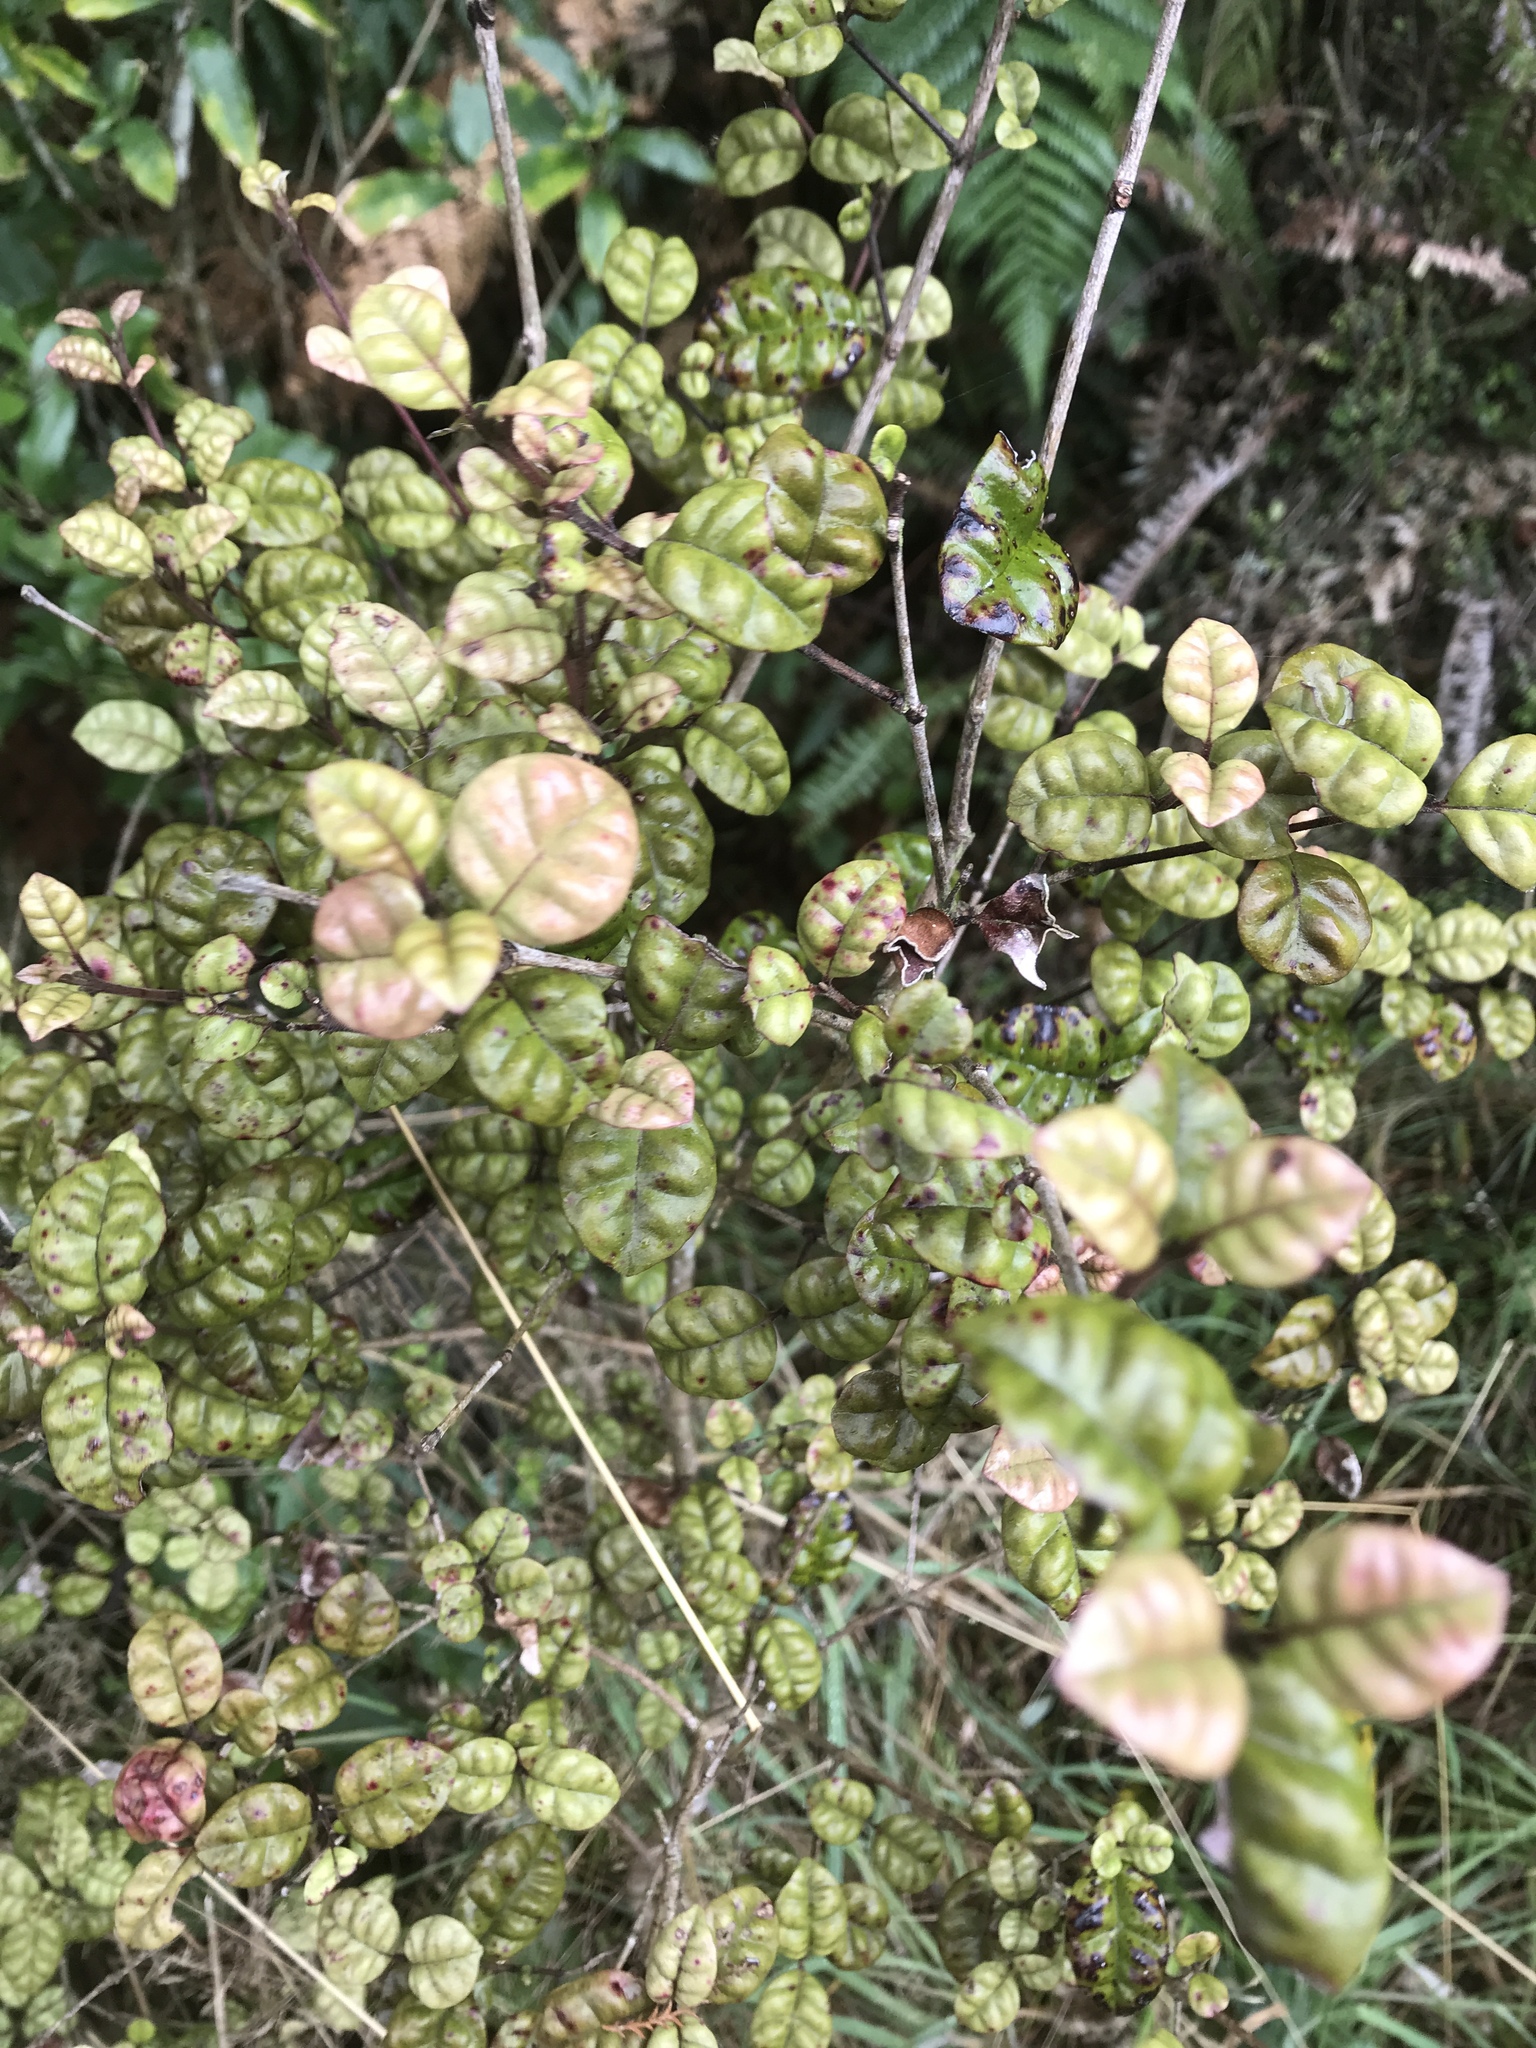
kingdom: Plantae
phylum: Tracheophyta
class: Magnoliopsida
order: Myrtales
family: Myrtaceae
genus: Lophomyrtus
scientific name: Lophomyrtus bullata
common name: Rama rama
